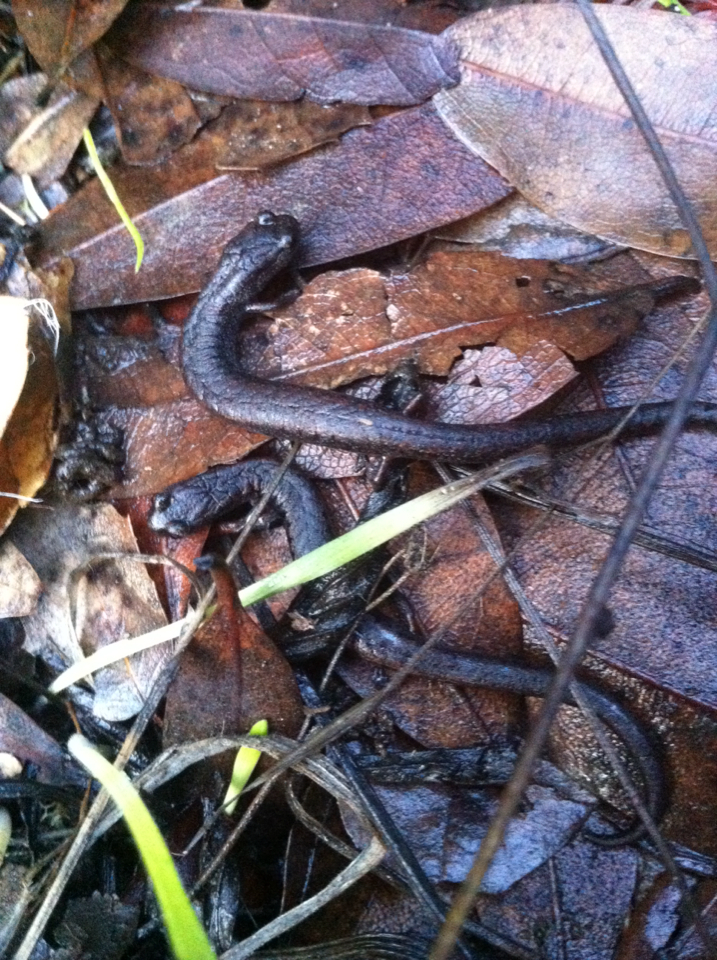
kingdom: Animalia
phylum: Chordata
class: Amphibia
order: Caudata
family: Plethodontidae
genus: Batrachoseps
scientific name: Batrachoseps attenuatus
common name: California slender salamander
